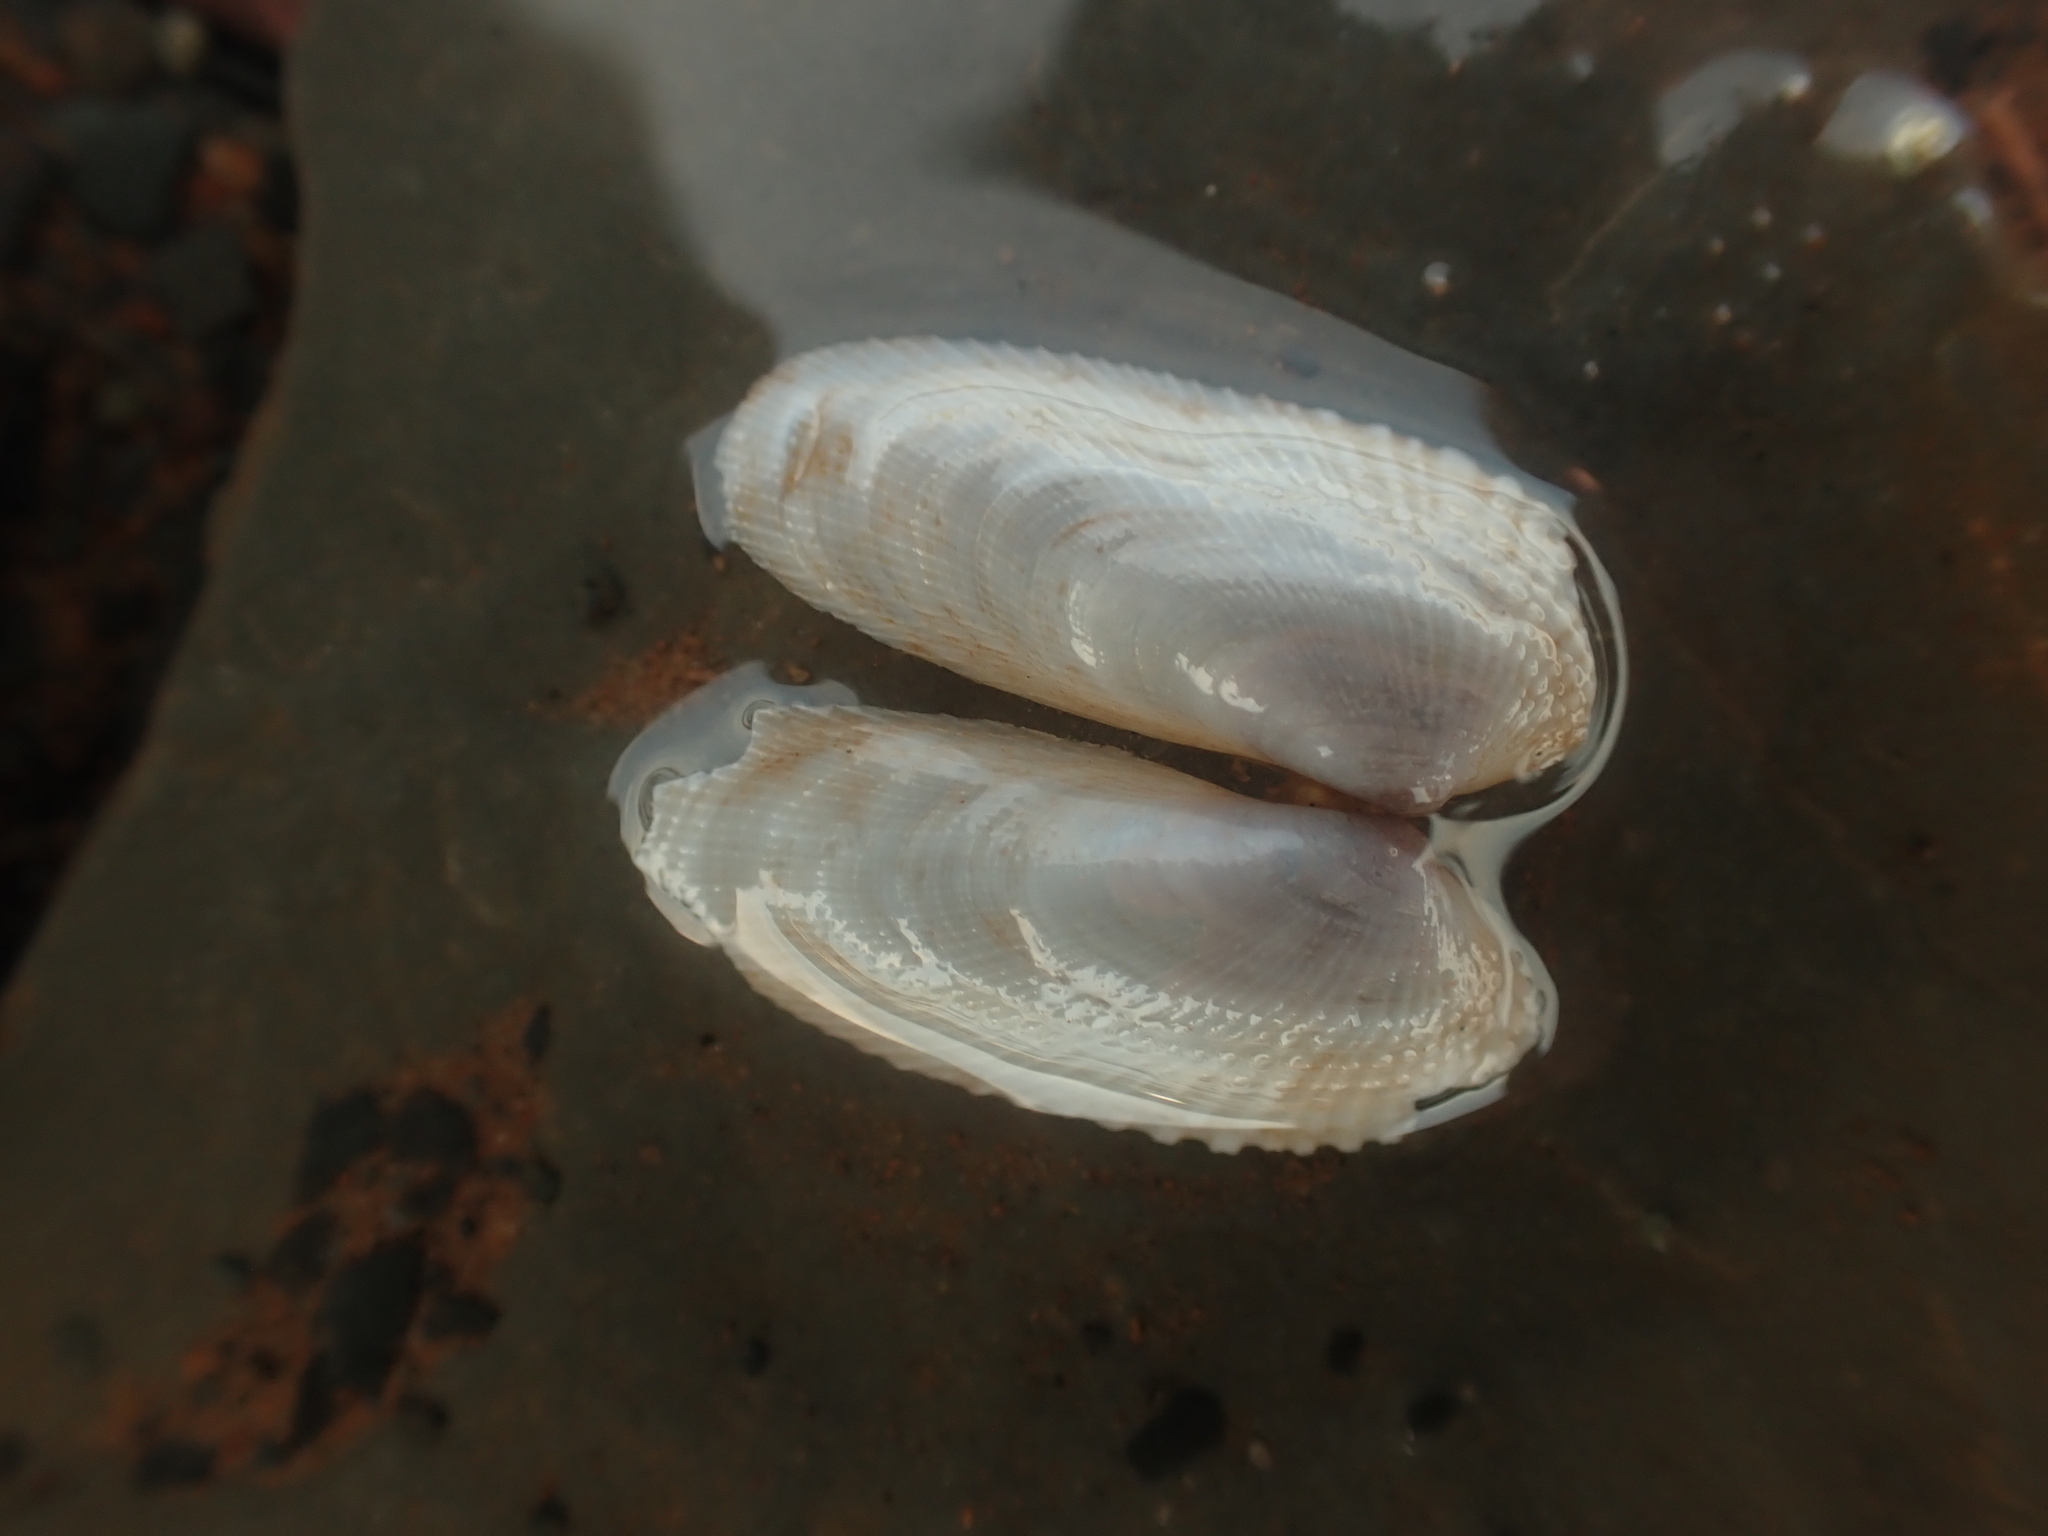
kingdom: Animalia
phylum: Mollusca
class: Bivalvia
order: Venerida
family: Veneridae
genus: Petricolaria
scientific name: Petricolaria pholadiformis
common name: American piddock
